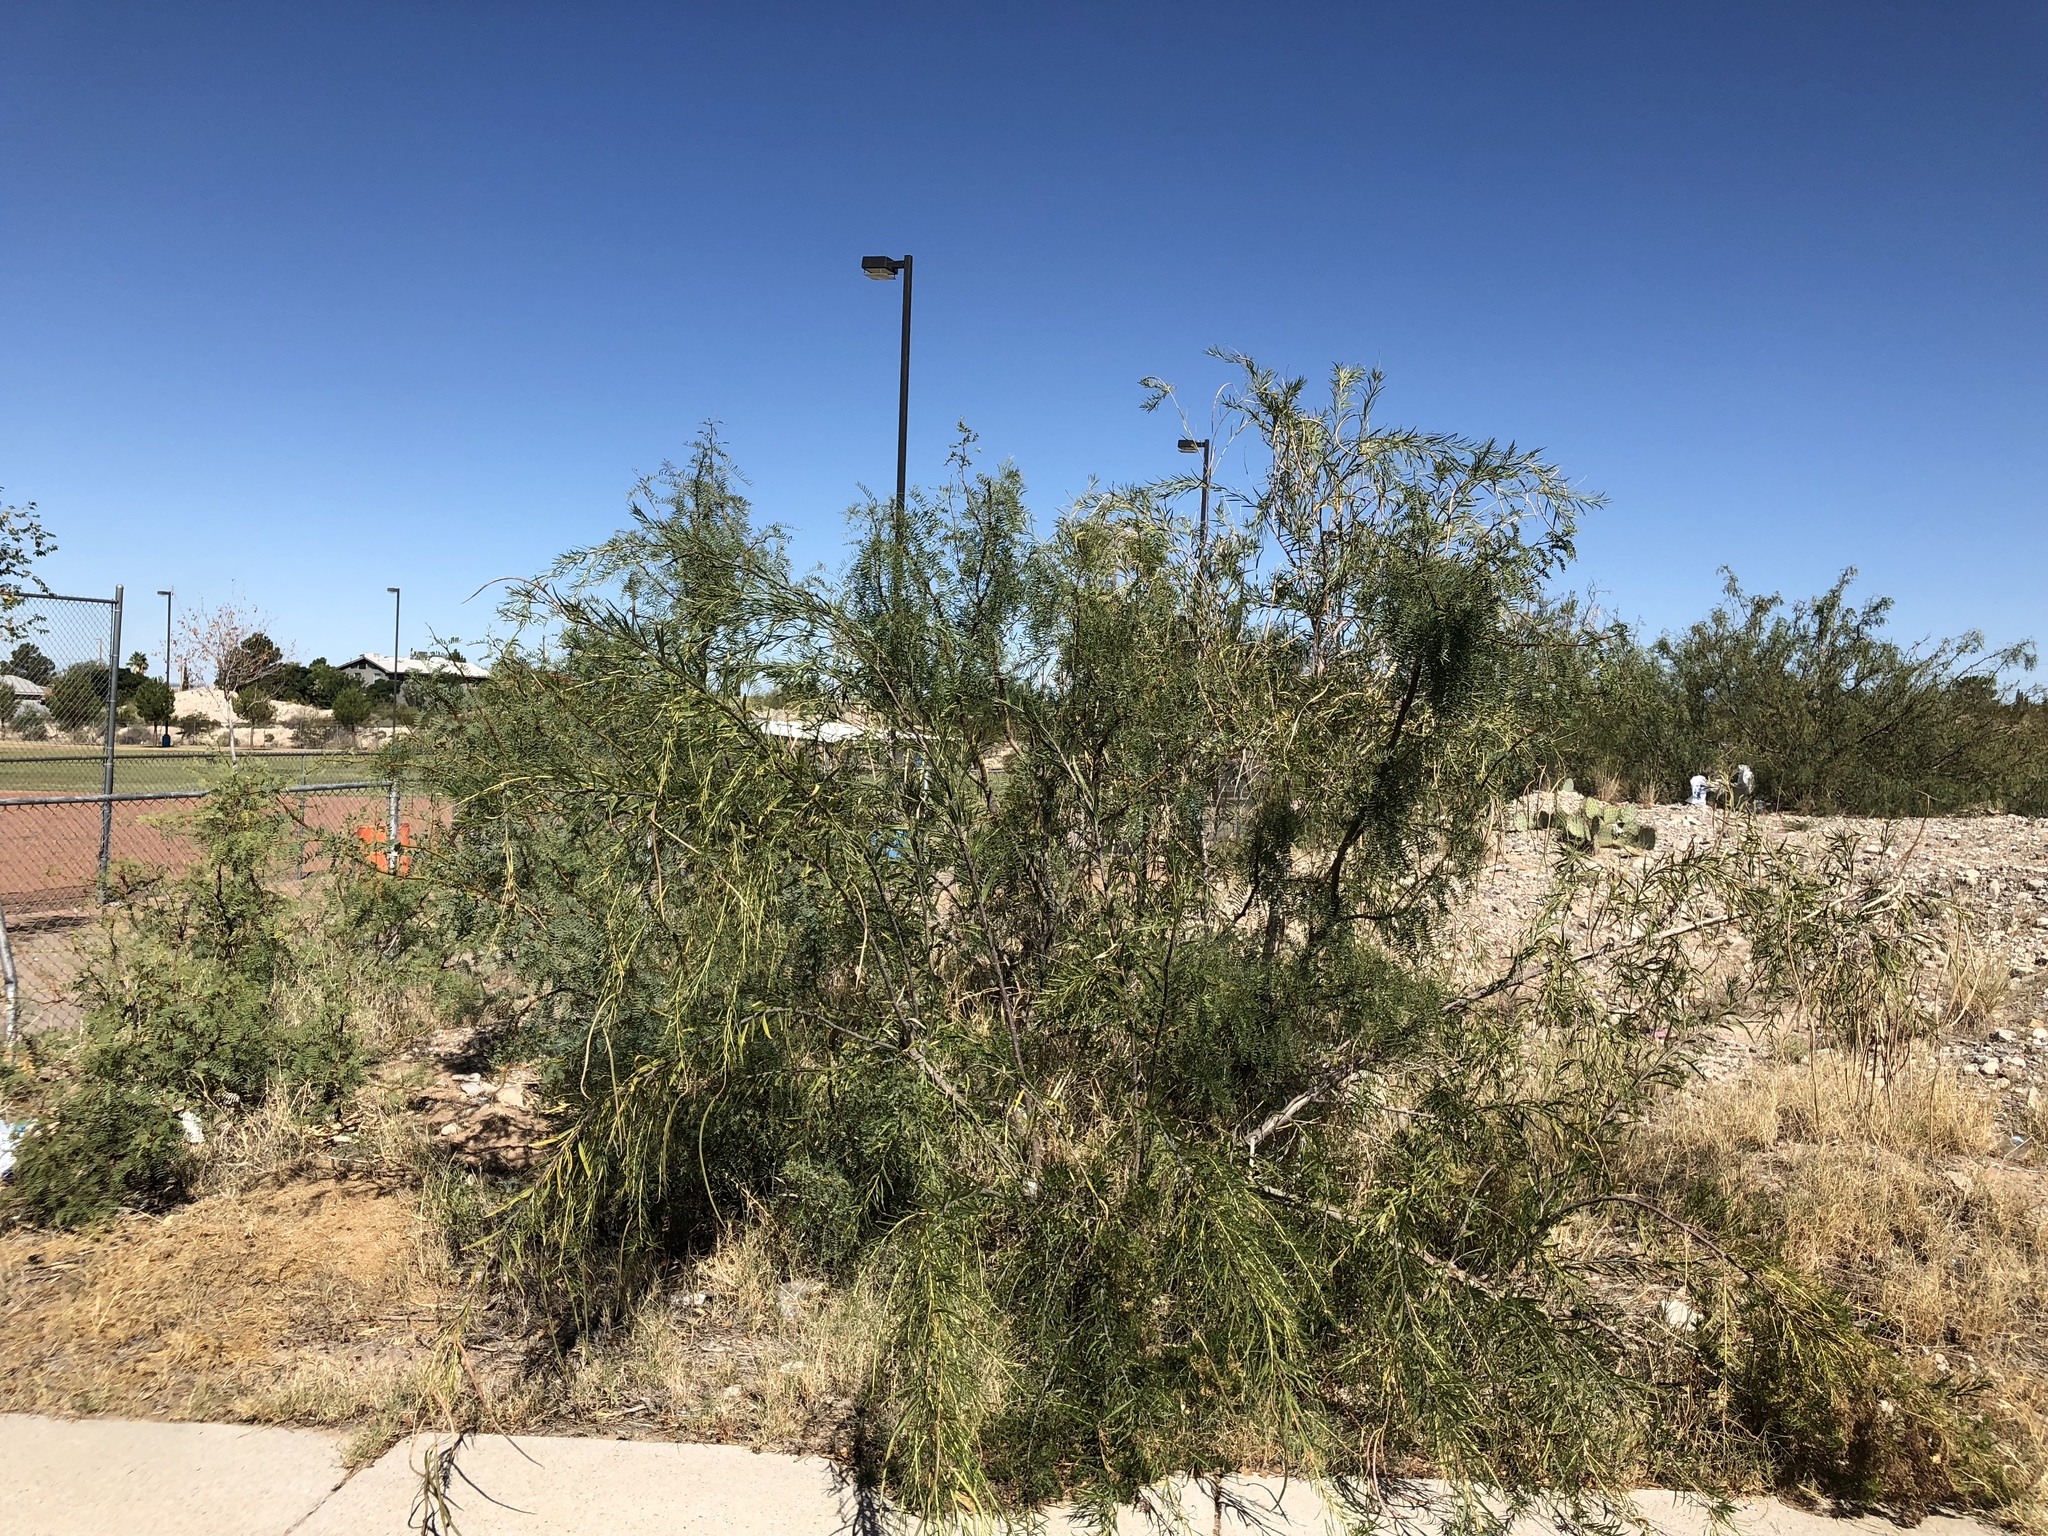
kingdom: Plantae
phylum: Tracheophyta
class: Magnoliopsida
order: Lamiales
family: Bignoniaceae
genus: Chilopsis
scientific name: Chilopsis linearis
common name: Desert-willow
